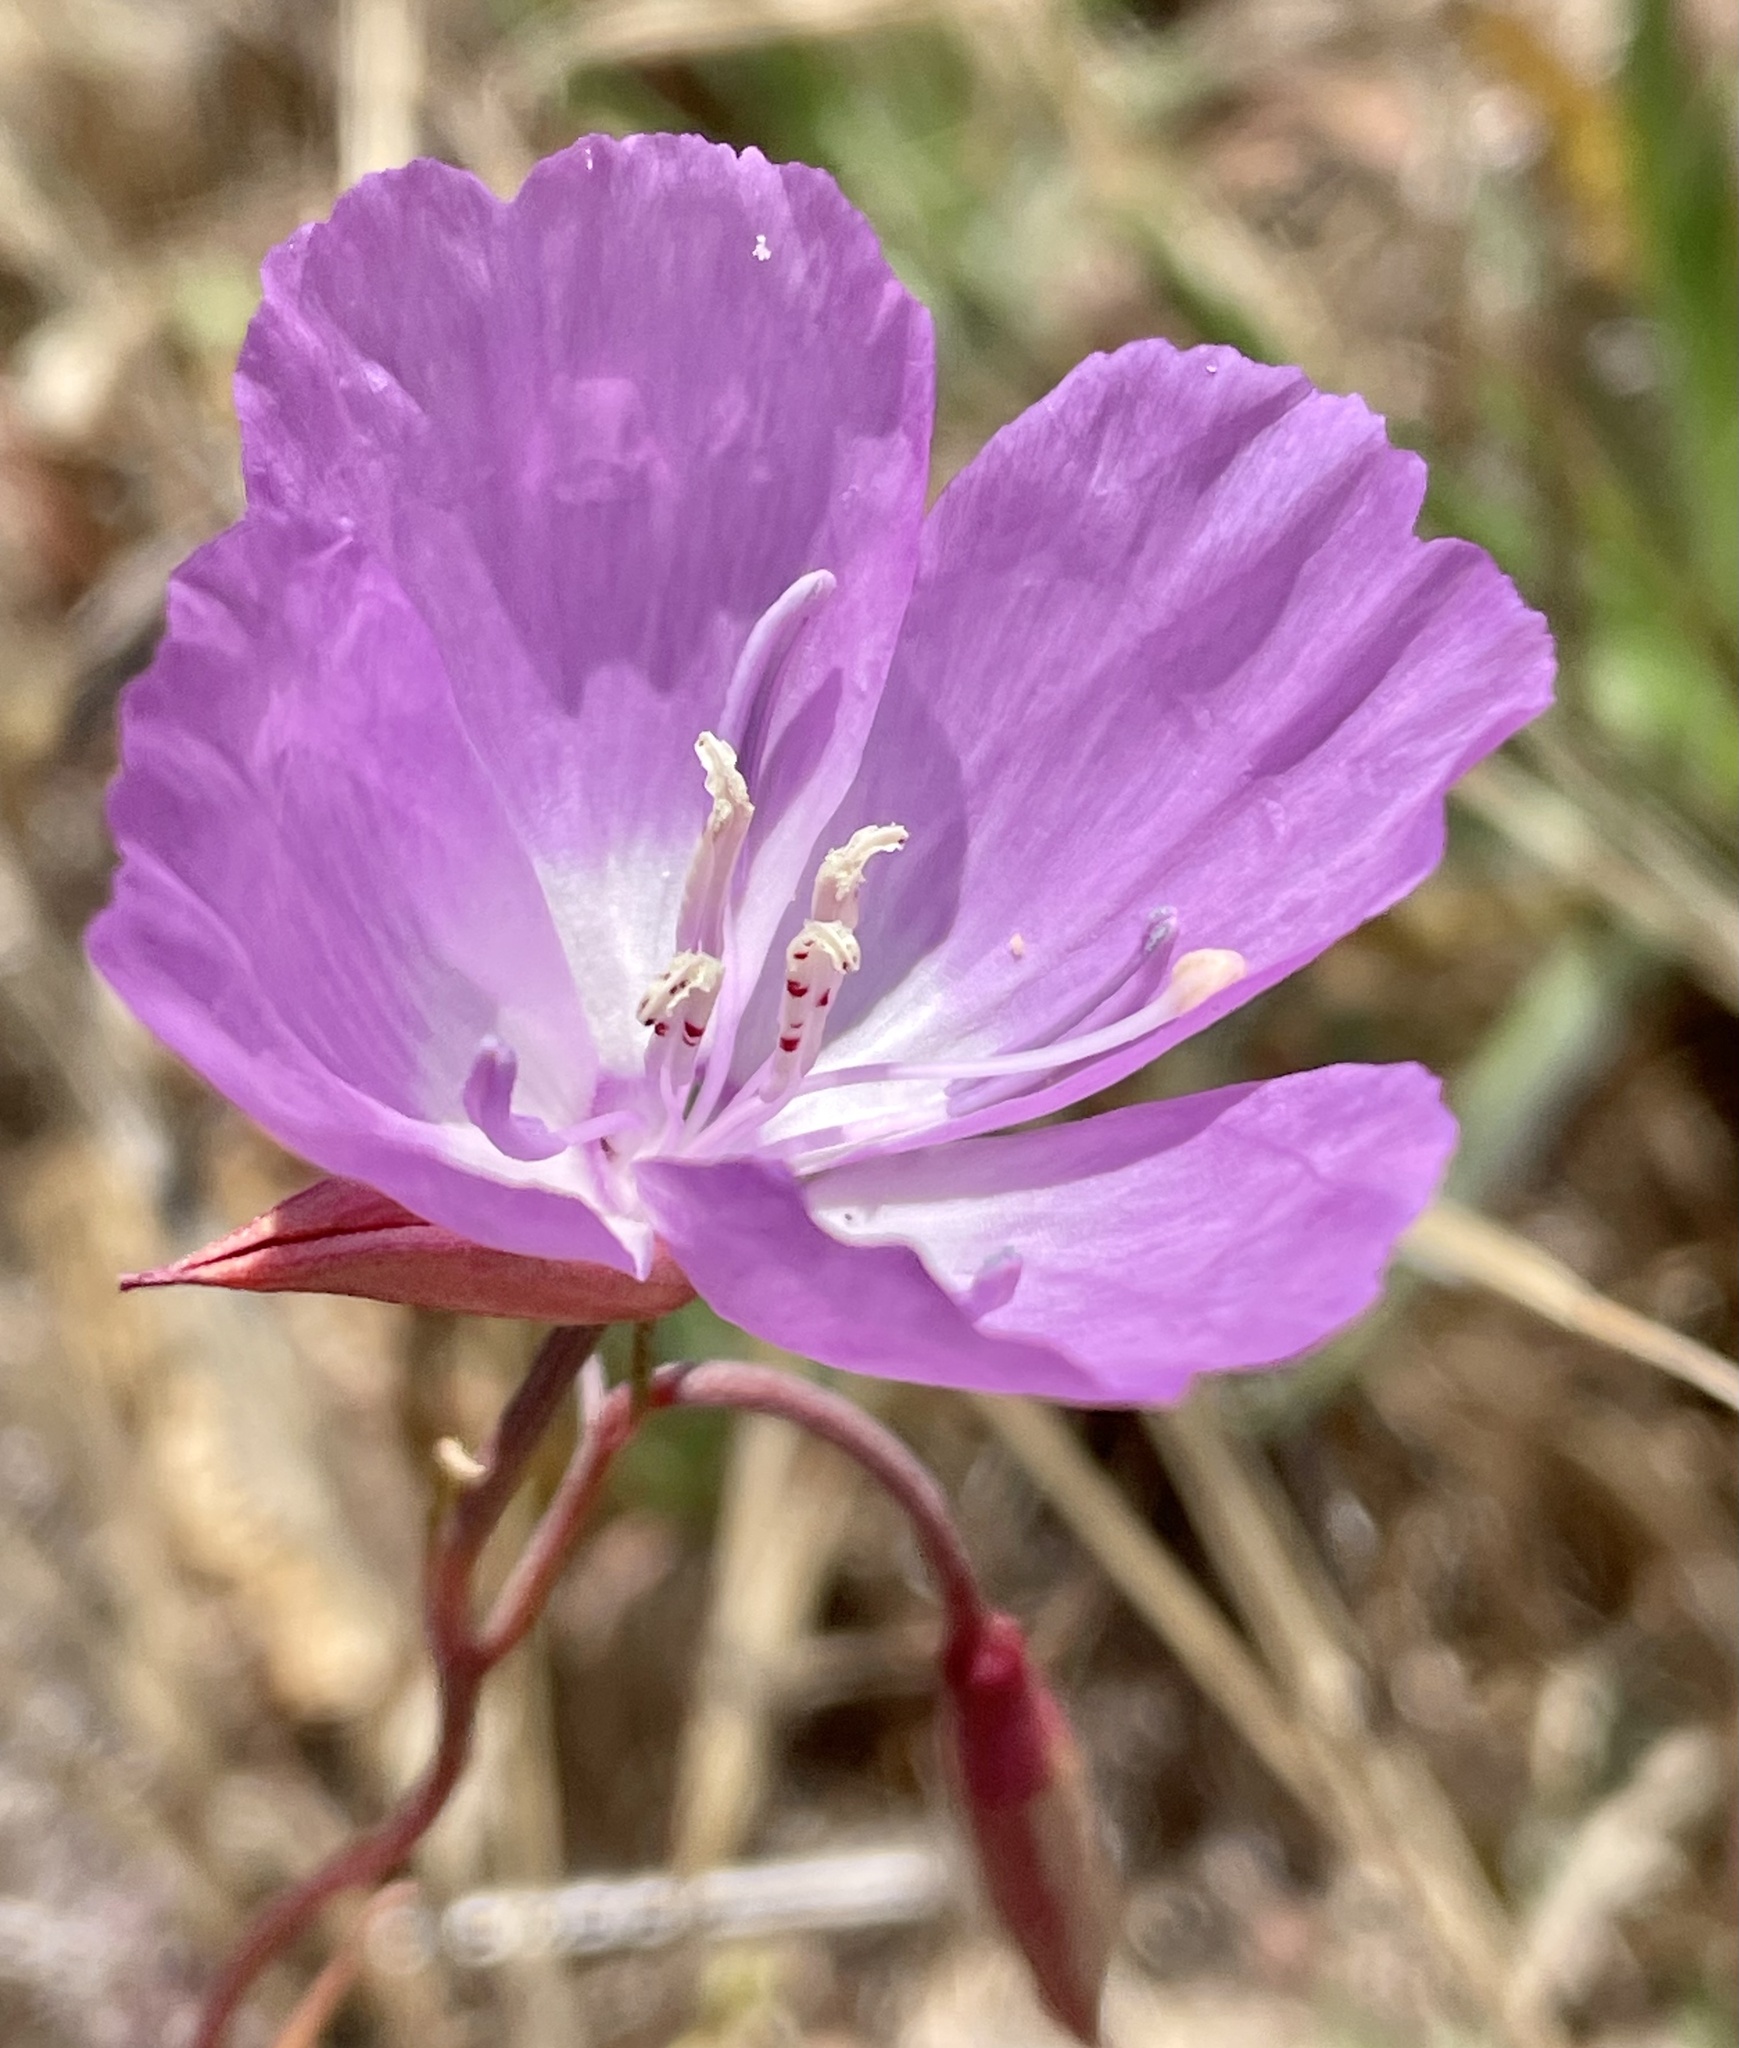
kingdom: Plantae
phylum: Tracheophyta
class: Magnoliopsida
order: Myrtales
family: Onagraceae
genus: Clarkia
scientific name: Clarkia lewisii
